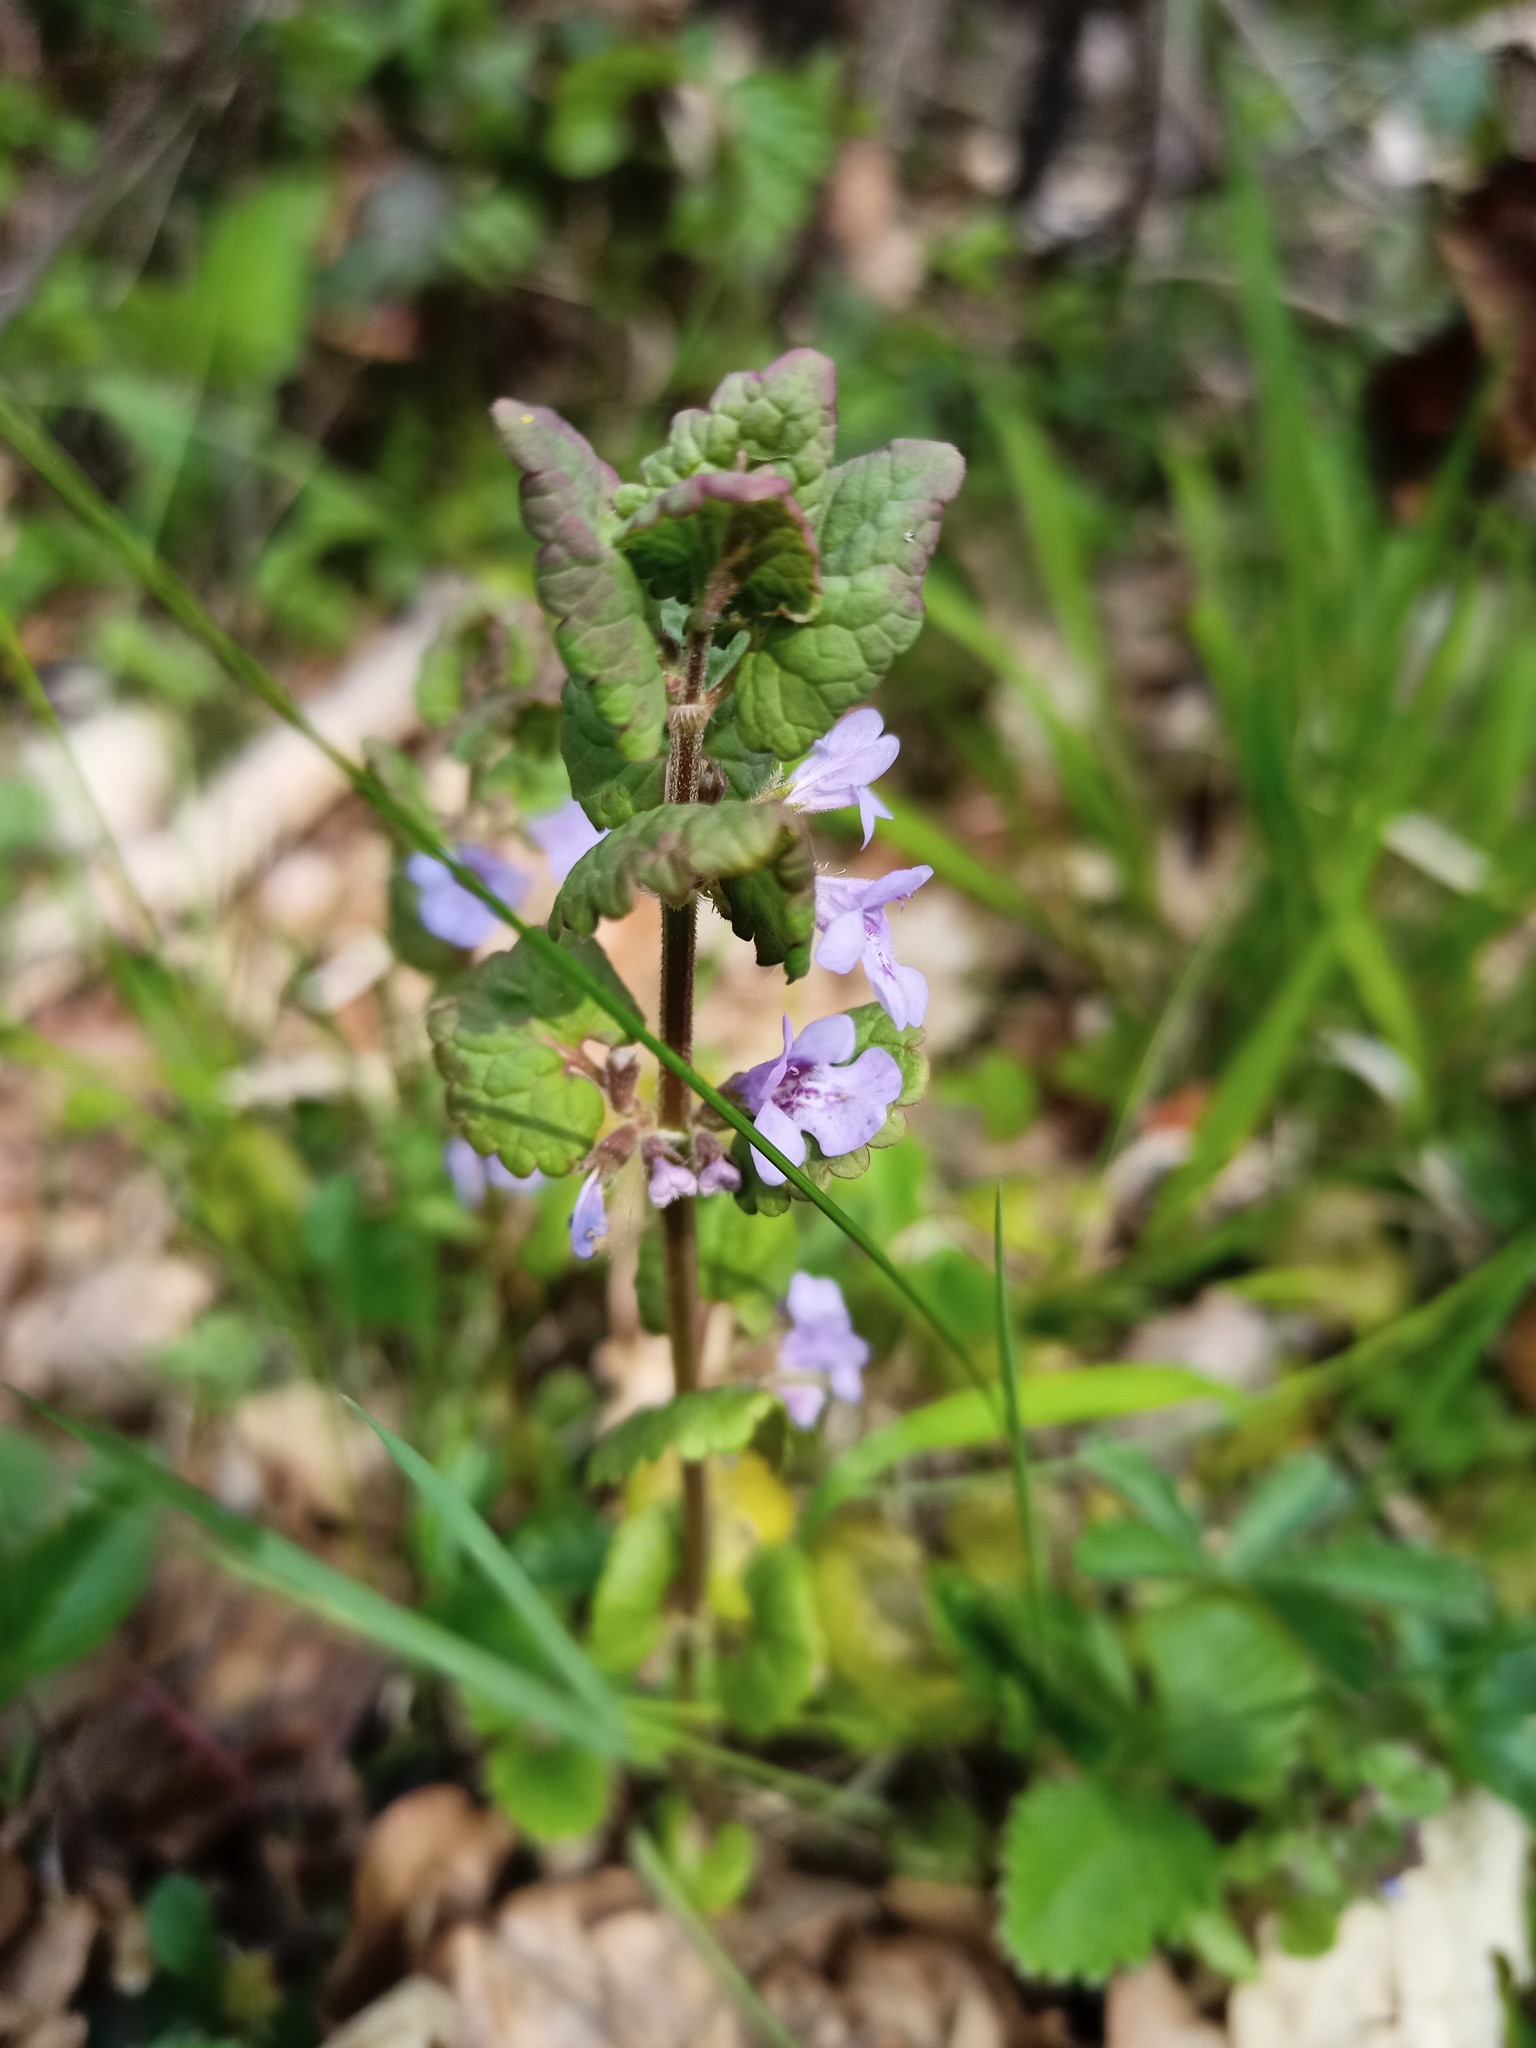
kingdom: Plantae
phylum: Tracheophyta
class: Magnoliopsida
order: Lamiales
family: Lamiaceae
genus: Glechoma
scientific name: Glechoma hederacea
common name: Ground ivy
